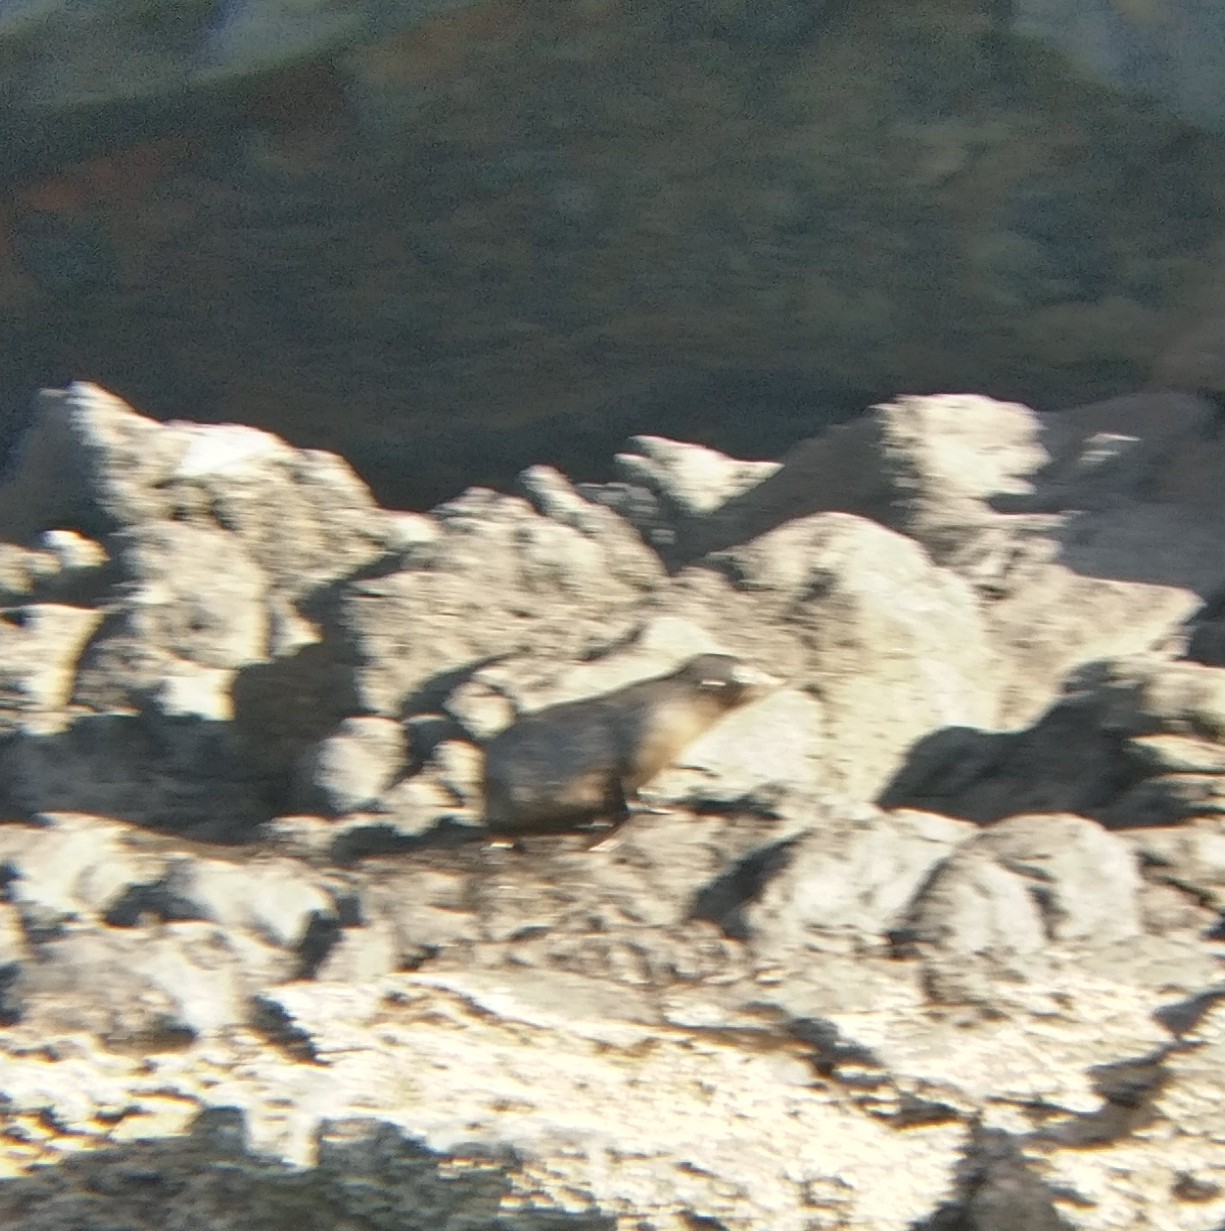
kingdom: Animalia
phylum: Chordata
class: Mammalia
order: Carnivora
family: Otariidae
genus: Arctocephalus
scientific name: Arctocephalus forsteri
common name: New zealand fur seal
